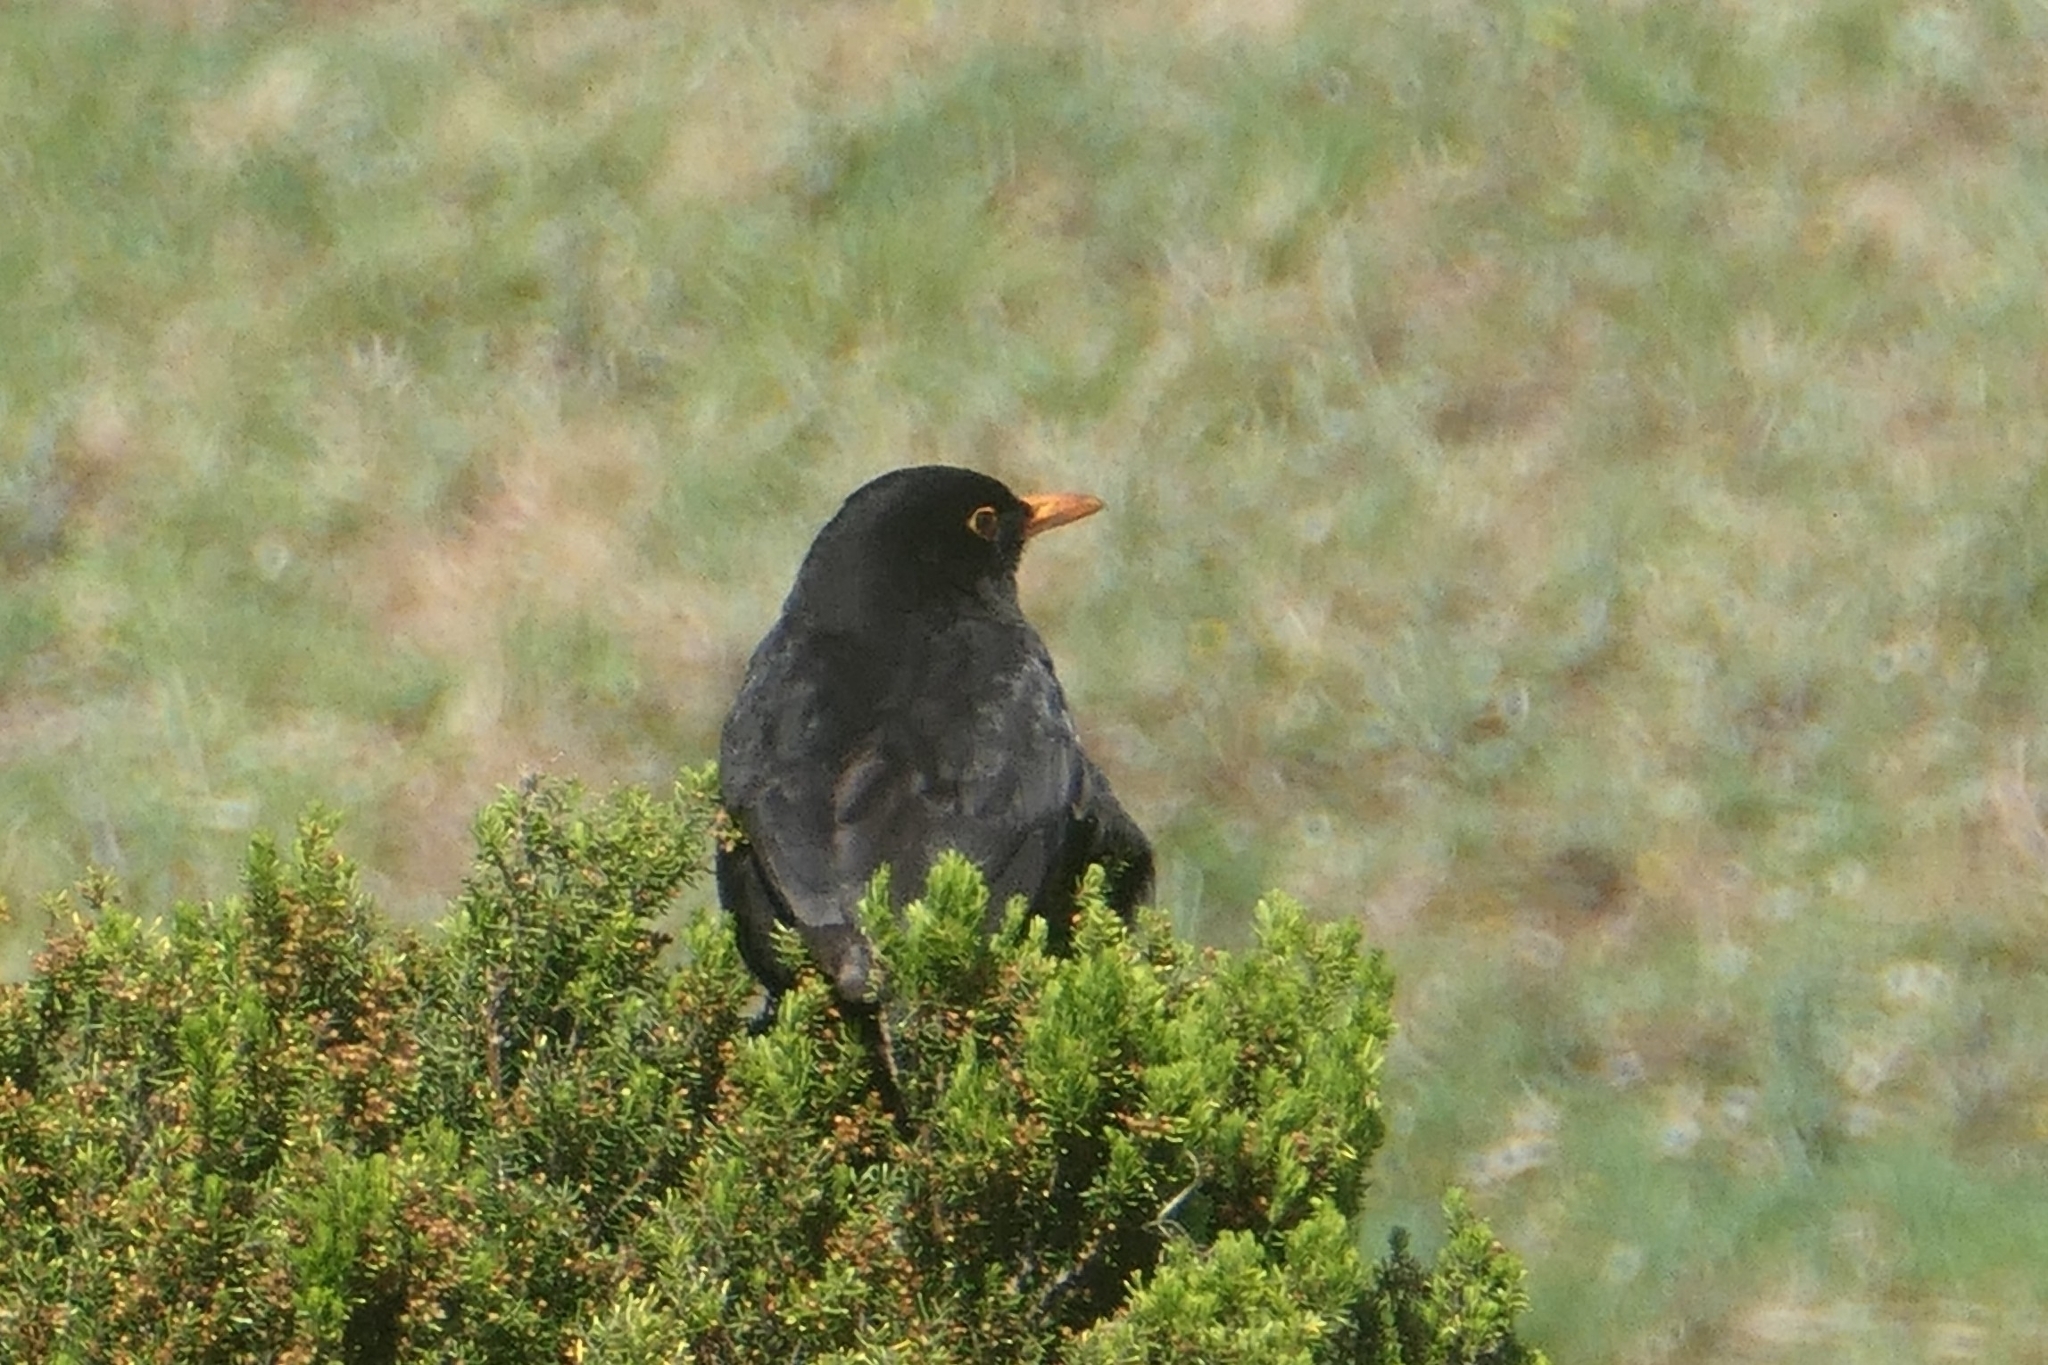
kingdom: Animalia
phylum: Chordata
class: Aves
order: Passeriformes
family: Turdidae
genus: Turdus
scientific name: Turdus merula
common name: Common blackbird
